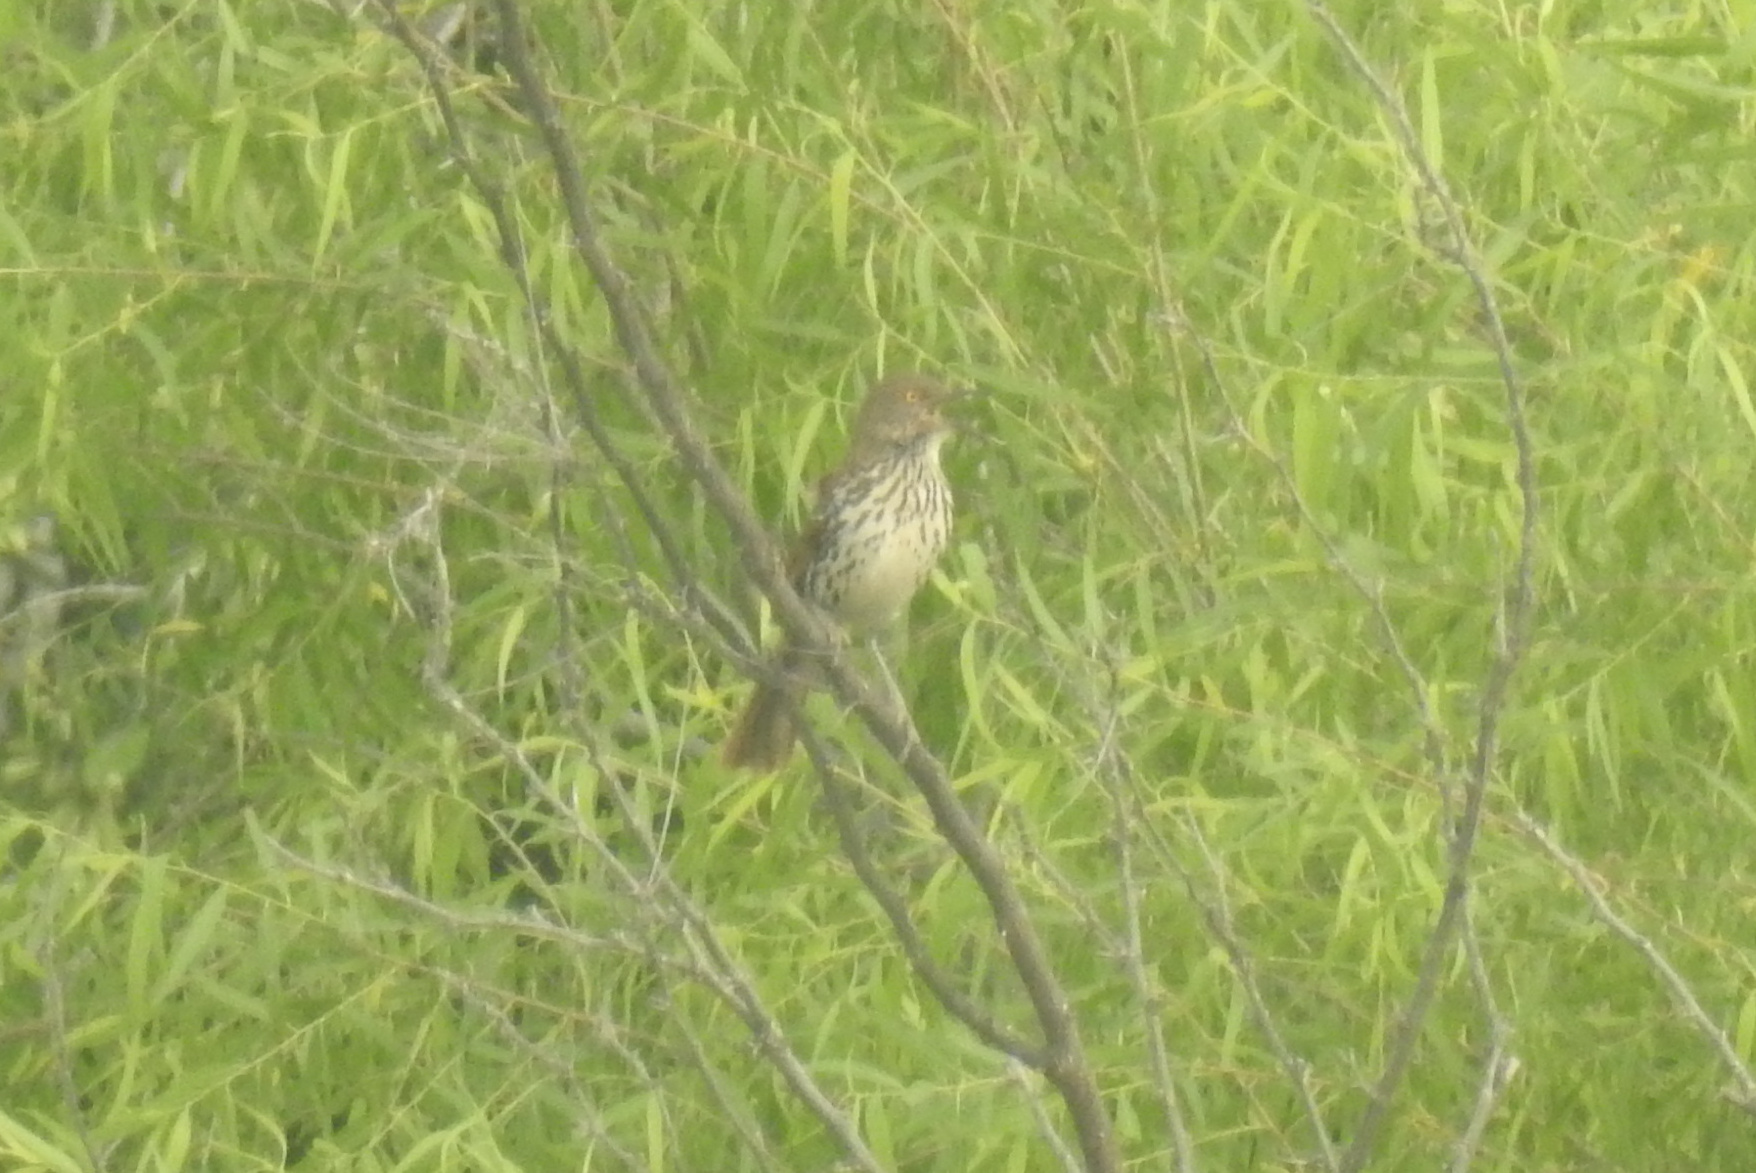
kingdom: Animalia
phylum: Chordata
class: Aves
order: Passeriformes
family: Mimidae
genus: Toxostoma
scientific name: Toxostoma longirostre
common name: Long-billed thrasher
